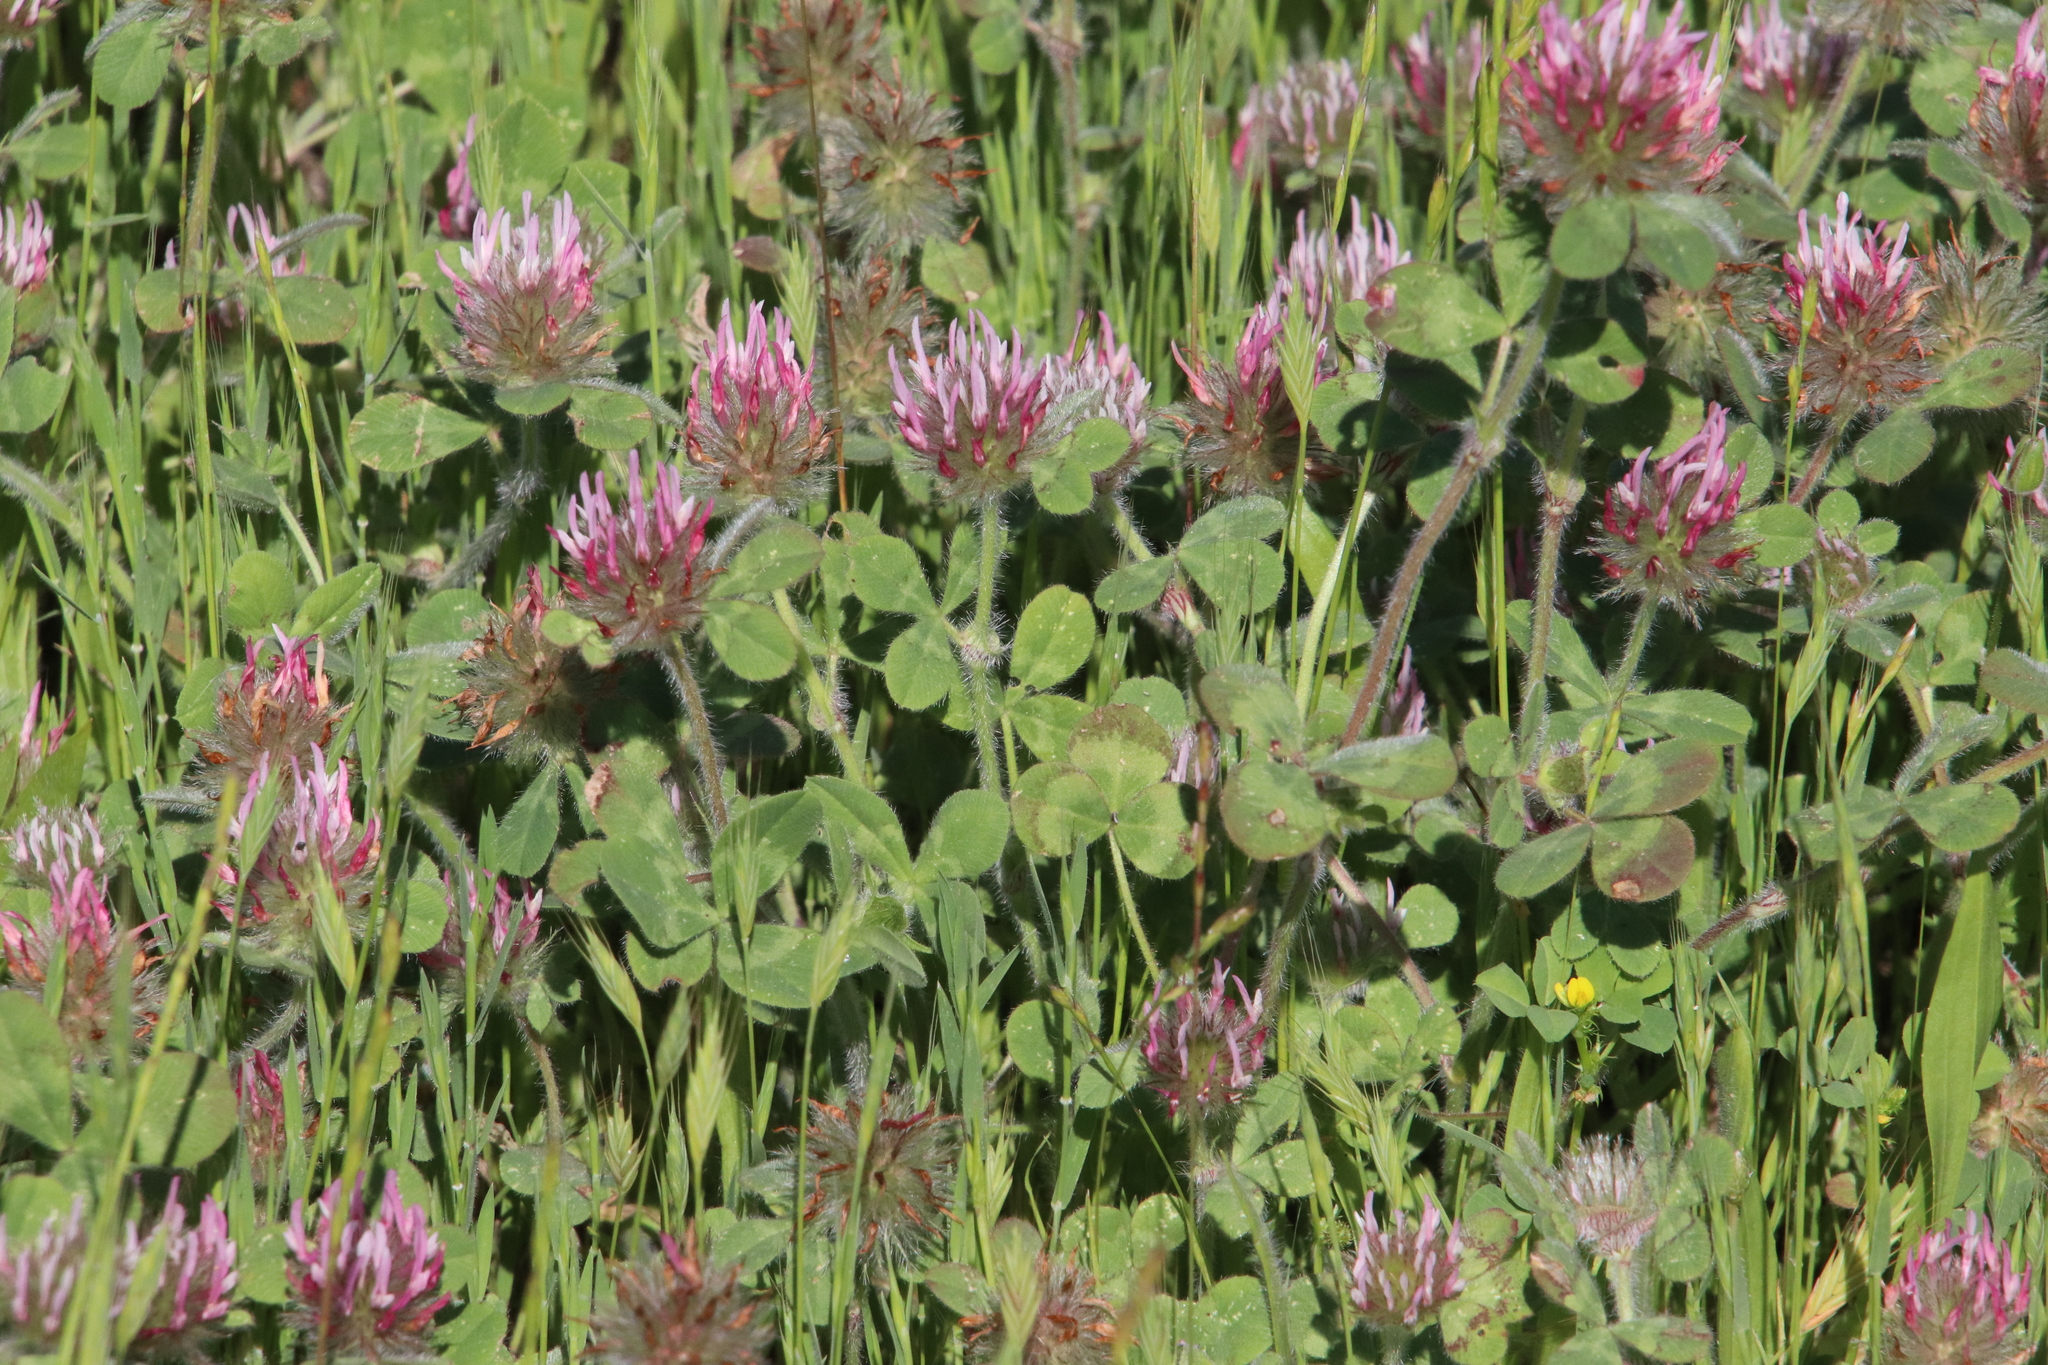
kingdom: Plantae
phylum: Tracheophyta
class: Magnoliopsida
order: Fabales
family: Fabaceae
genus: Trifolium
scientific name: Trifolium hirtum
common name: Rose clover
